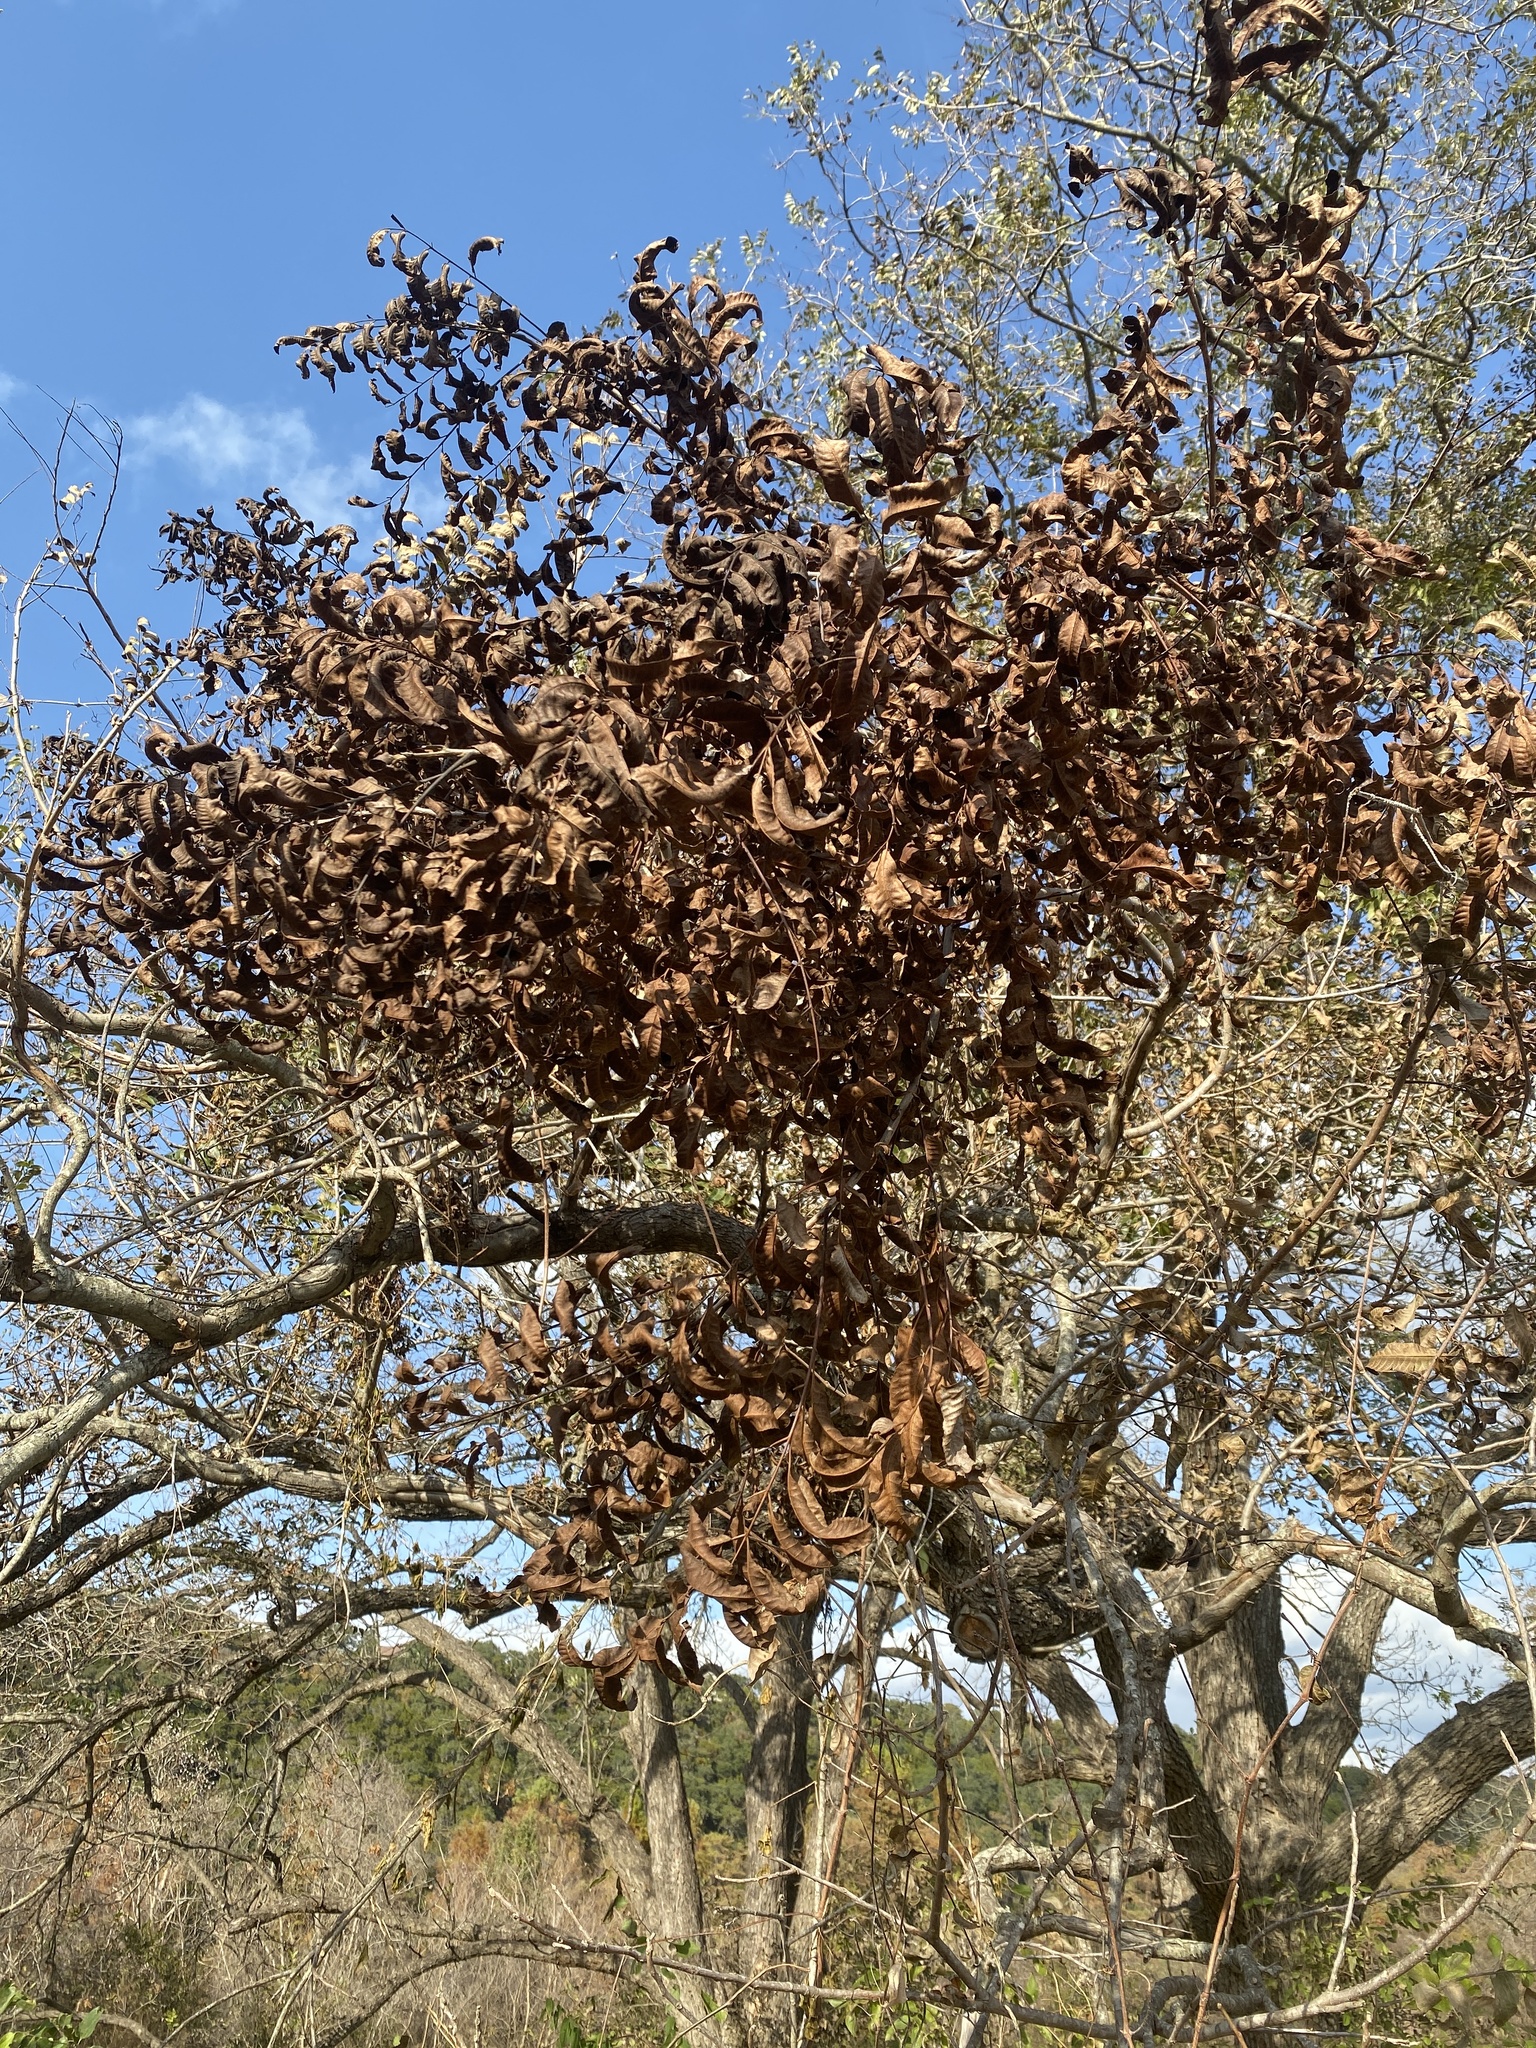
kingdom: Plantae
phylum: Tracheophyta
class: Magnoliopsida
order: Fagales
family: Juglandaceae
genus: Carya
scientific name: Carya illinoinensis
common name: Pecan
